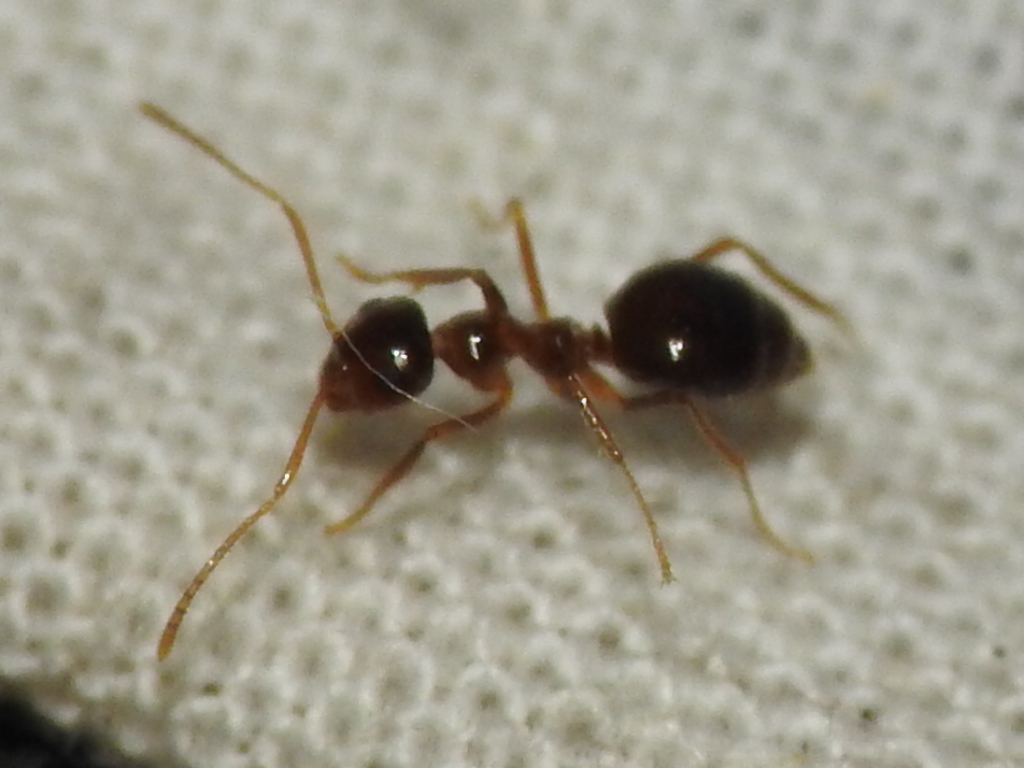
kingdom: Animalia
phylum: Arthropoda
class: Insecta
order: Hymenoptera
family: Formicidae
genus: Prenolepis
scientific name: Prenolepis imparis
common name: Small honey ant
